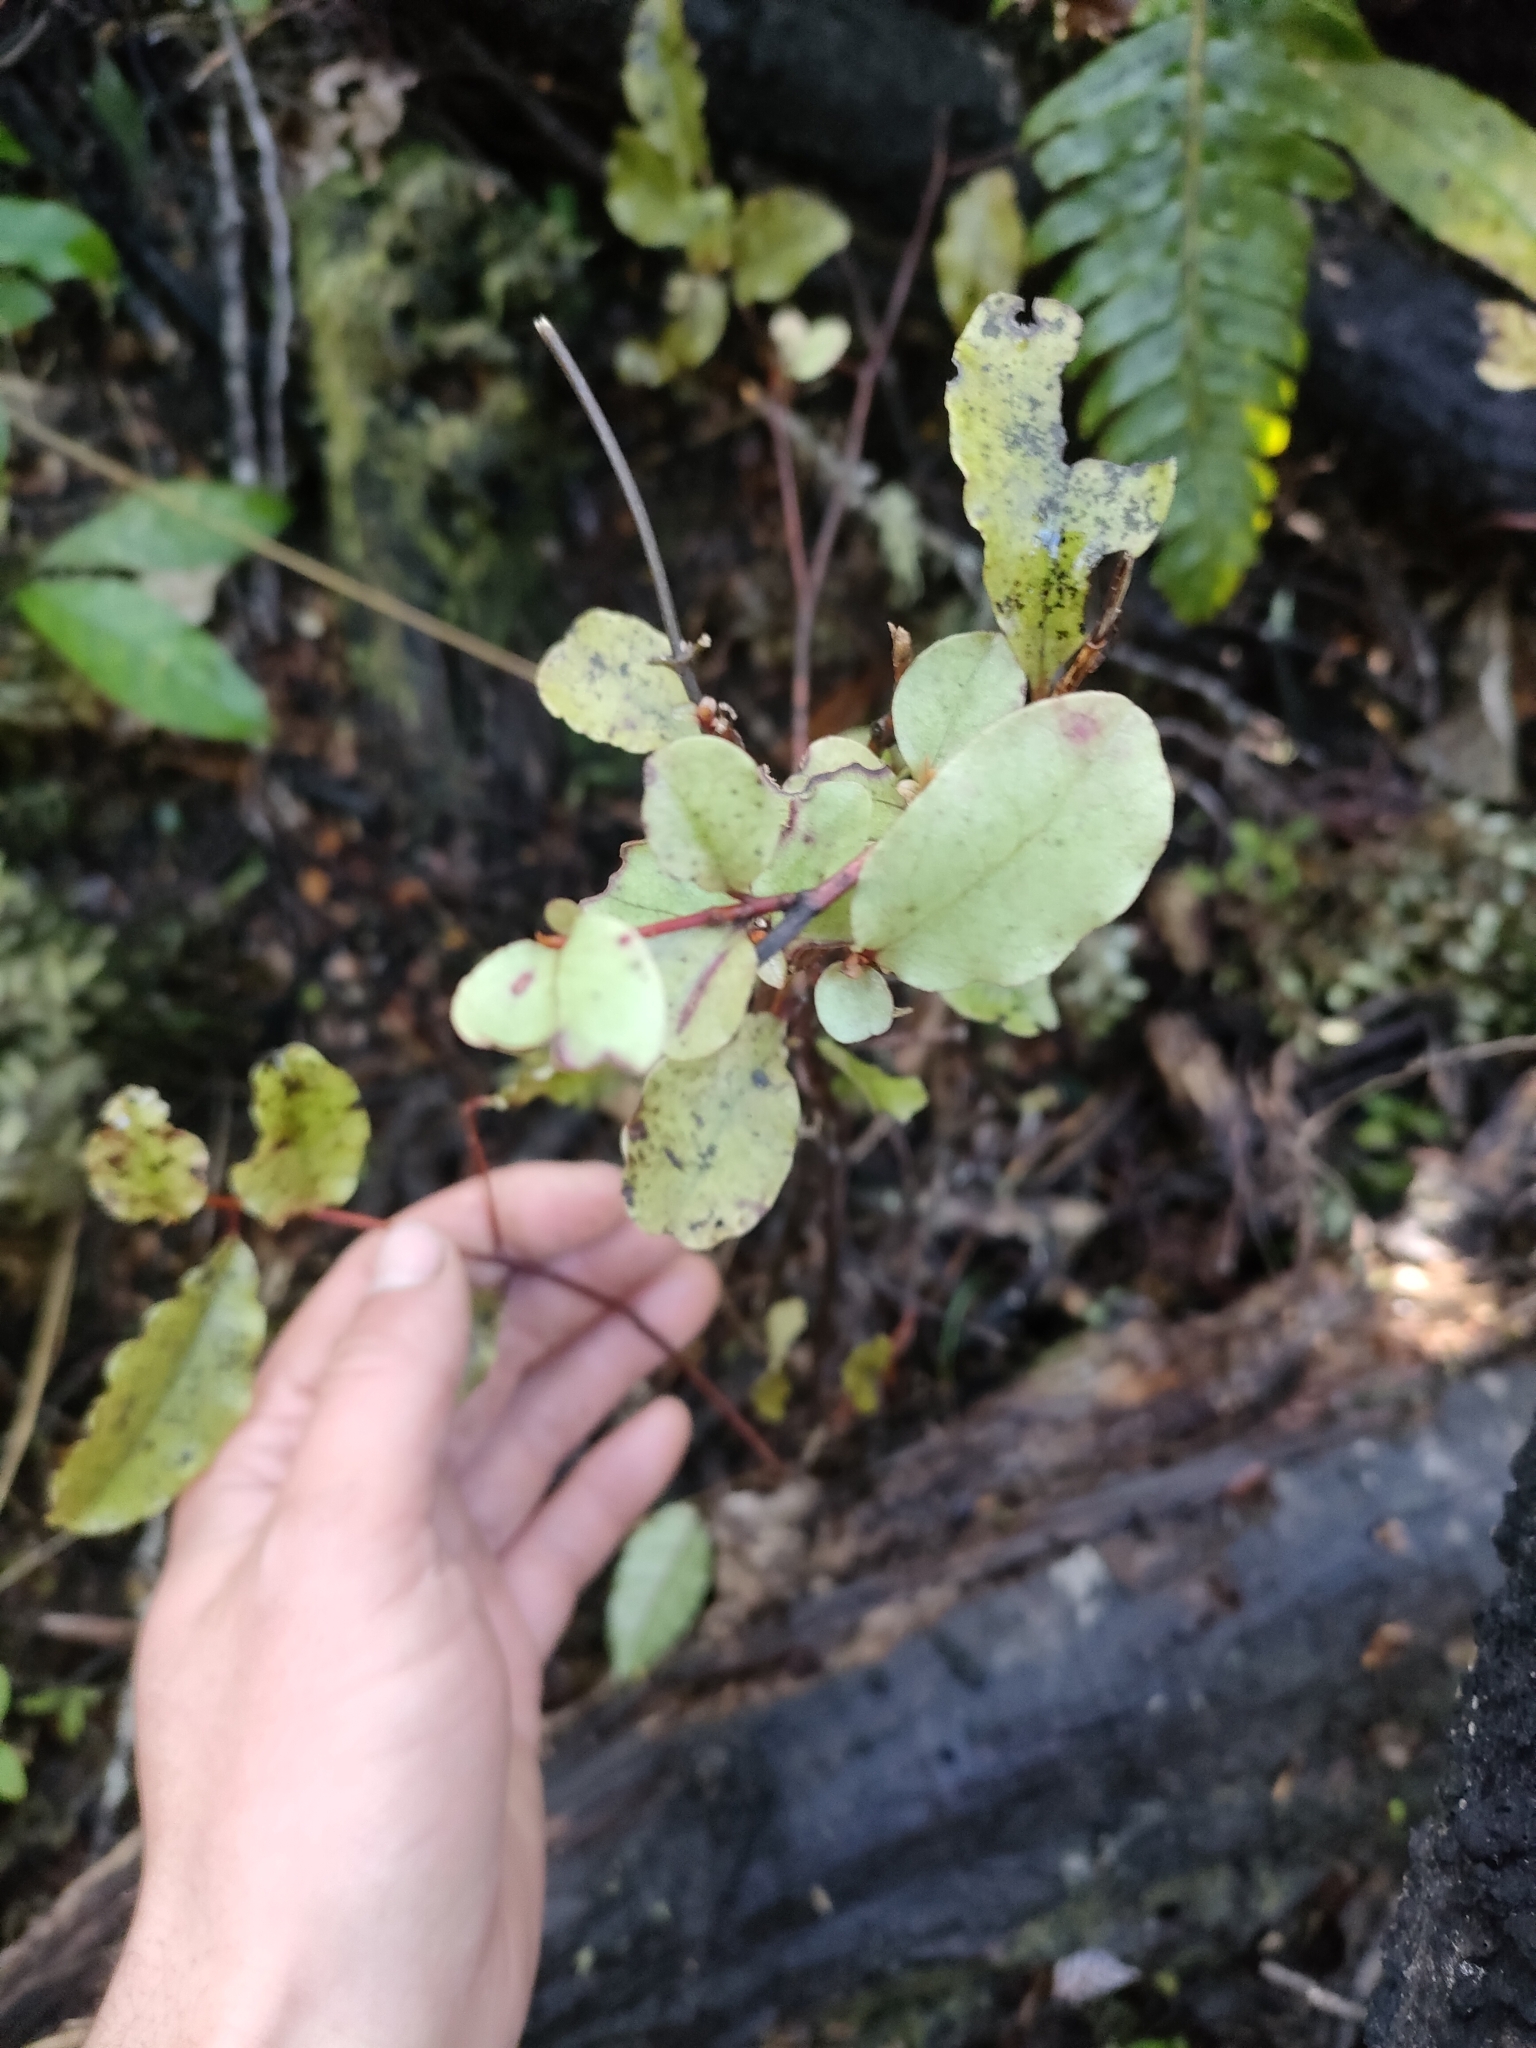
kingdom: Plantae
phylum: Tracheophyta
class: Magnoliopsida
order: Ericales
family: Primulaceae
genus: Myrsine
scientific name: Myrsine australis
